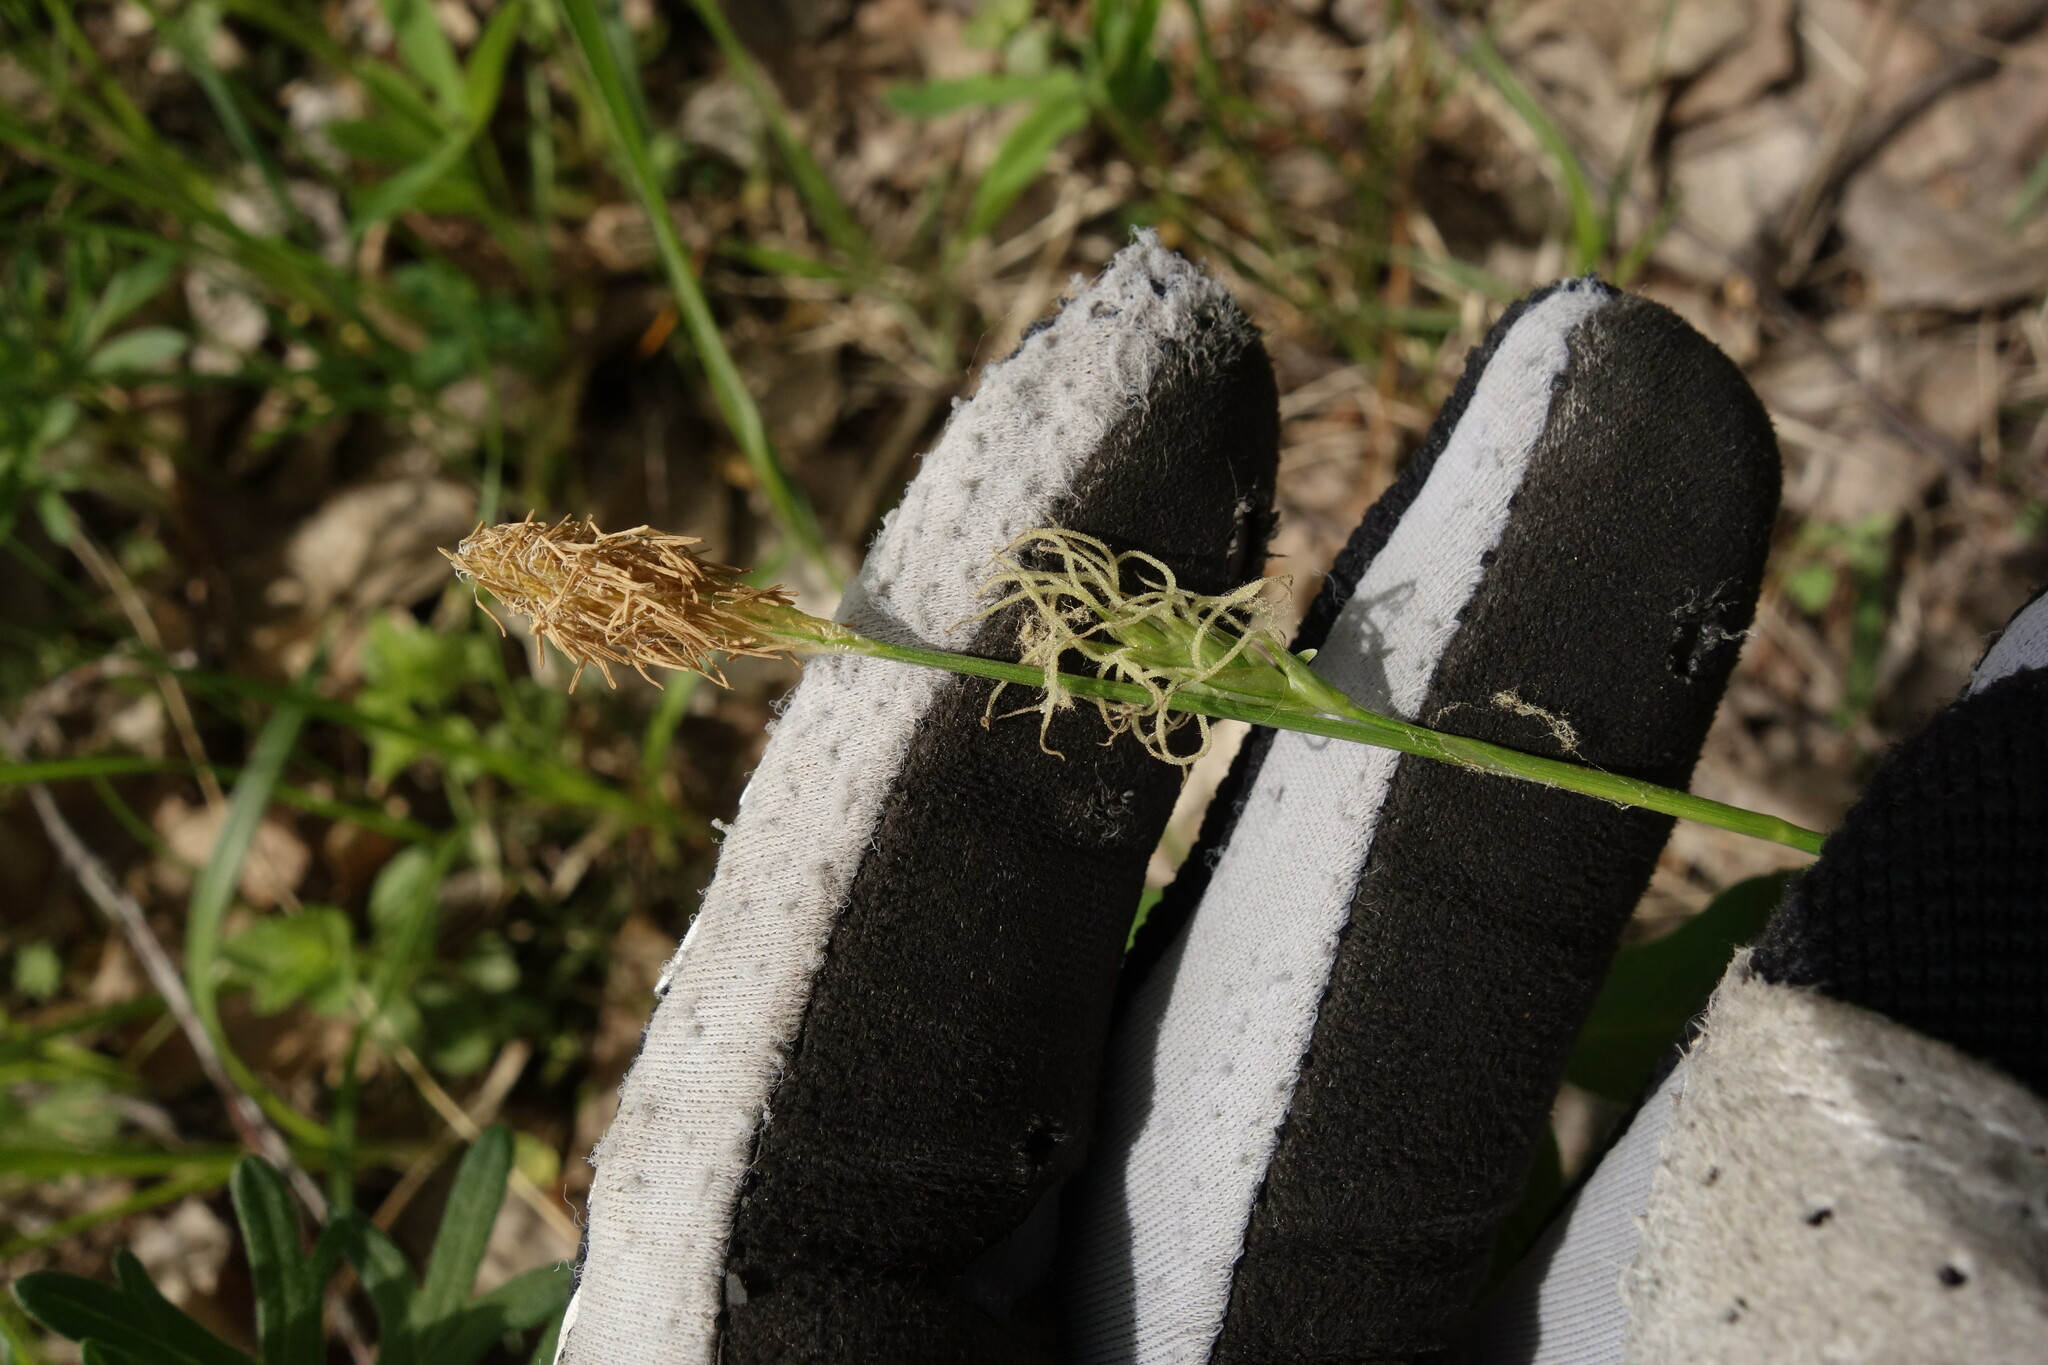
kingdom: Plantae
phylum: Tracheophyta
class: Liliopsida
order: Poales
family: Cyperaceae
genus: Carex
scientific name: Carex michelii
